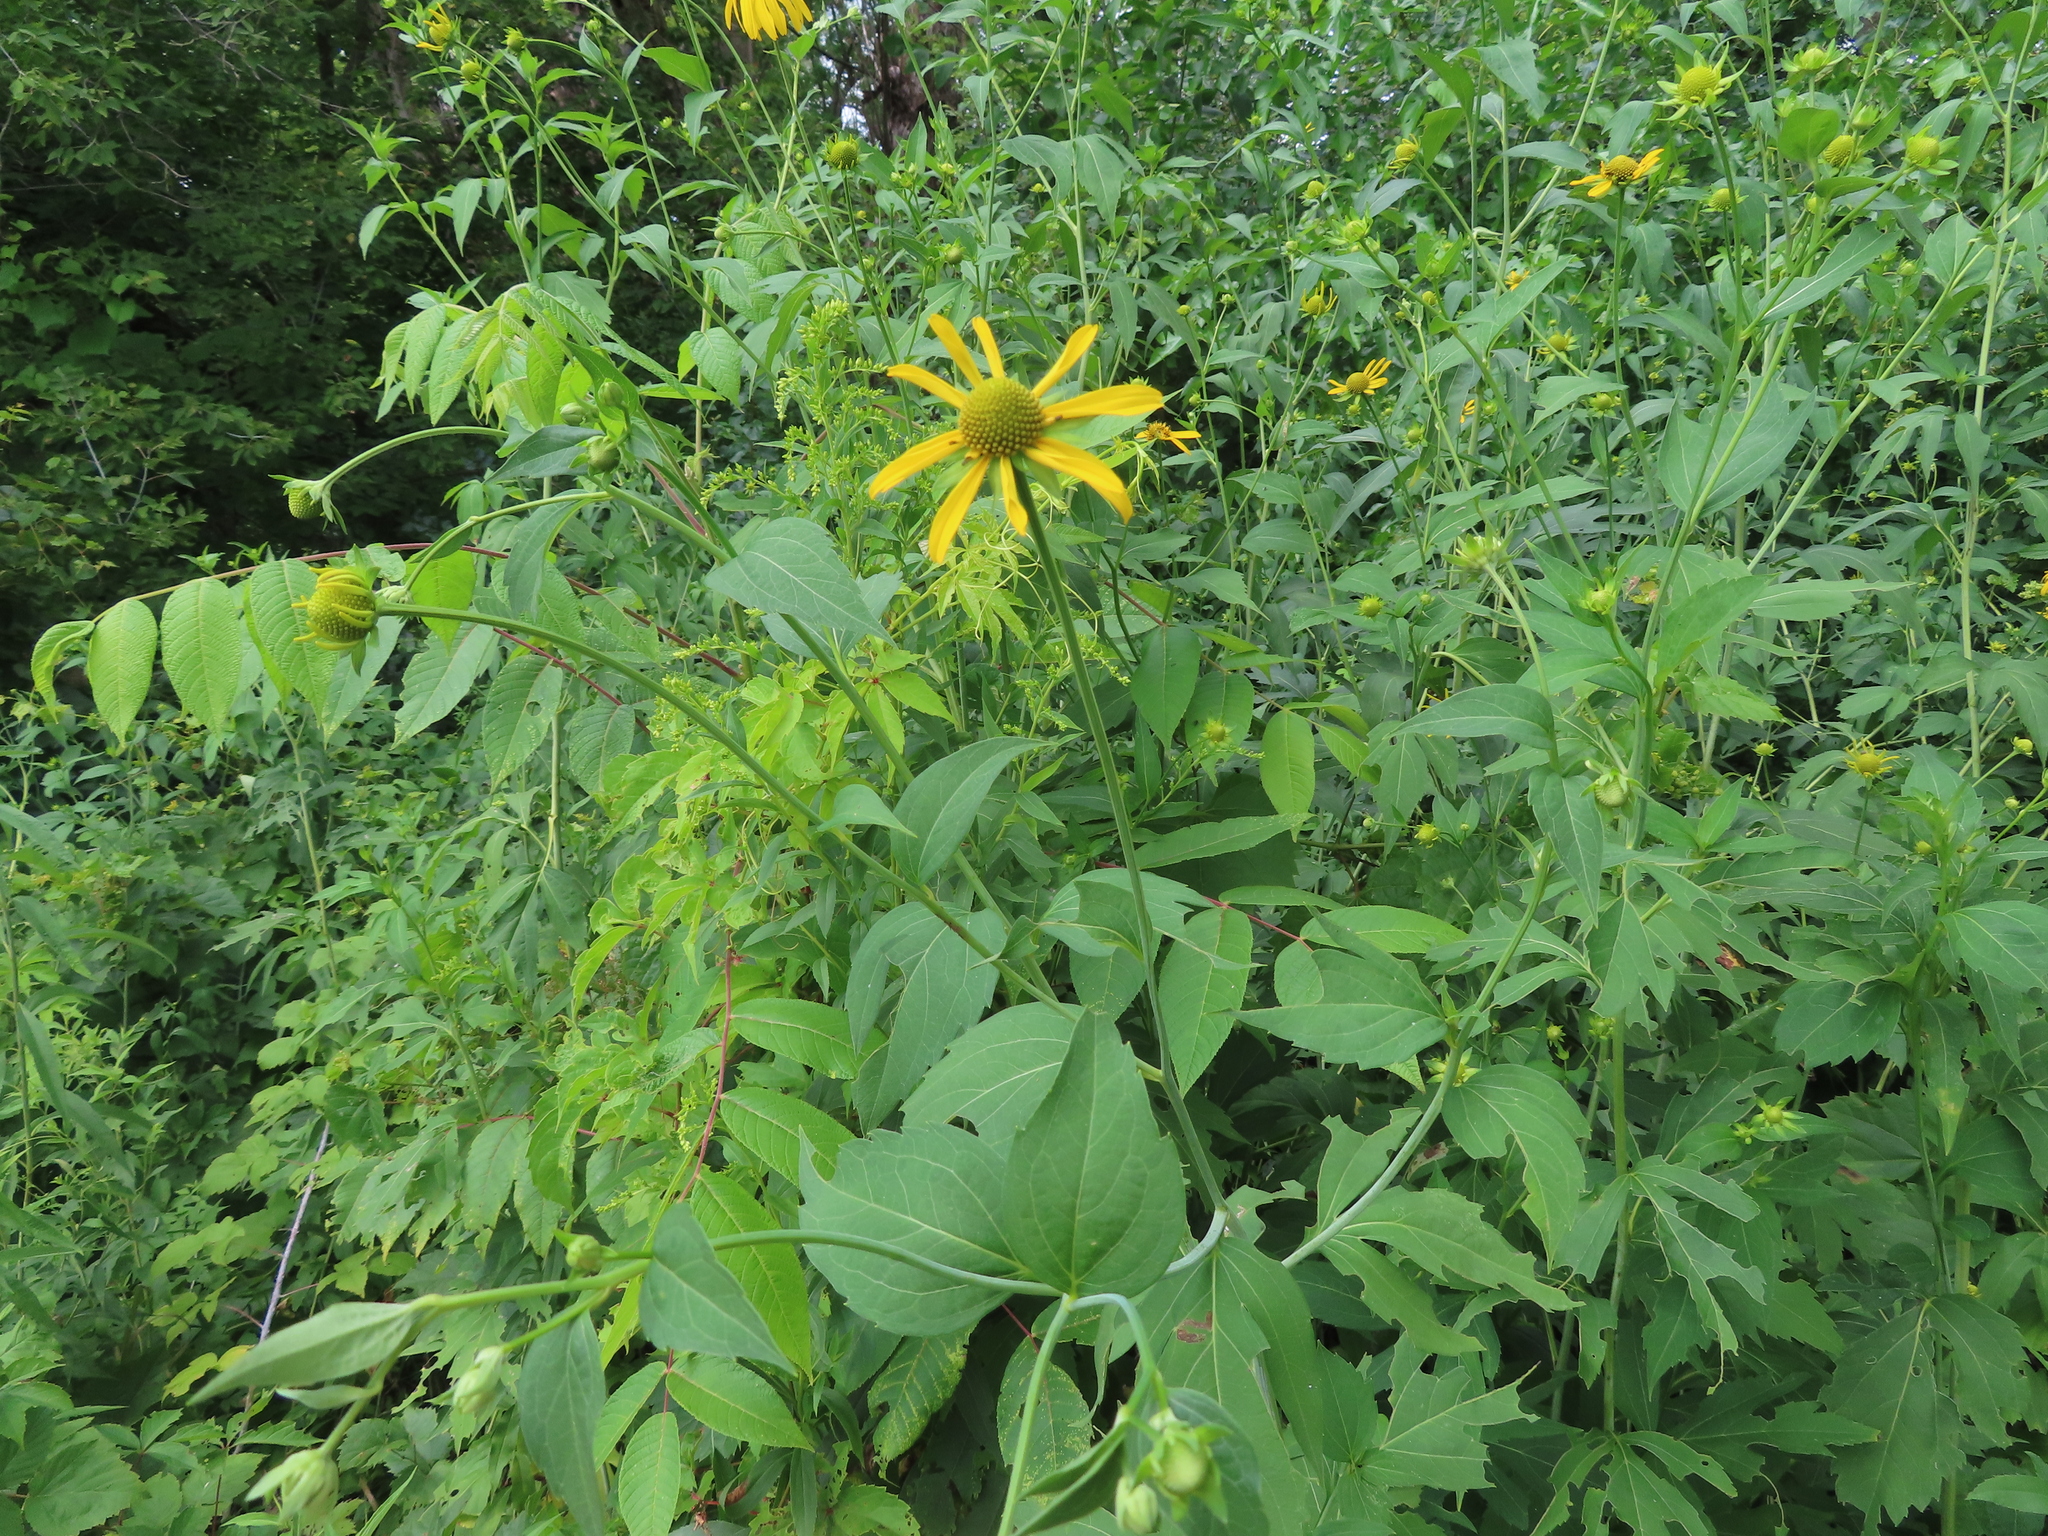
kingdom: Plantae
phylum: Tracheophyta
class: Magnoliopsida
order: Asterales
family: Asteraceae
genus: Rudbeckia
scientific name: Rudbeckia laciniata
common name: Coneflower
